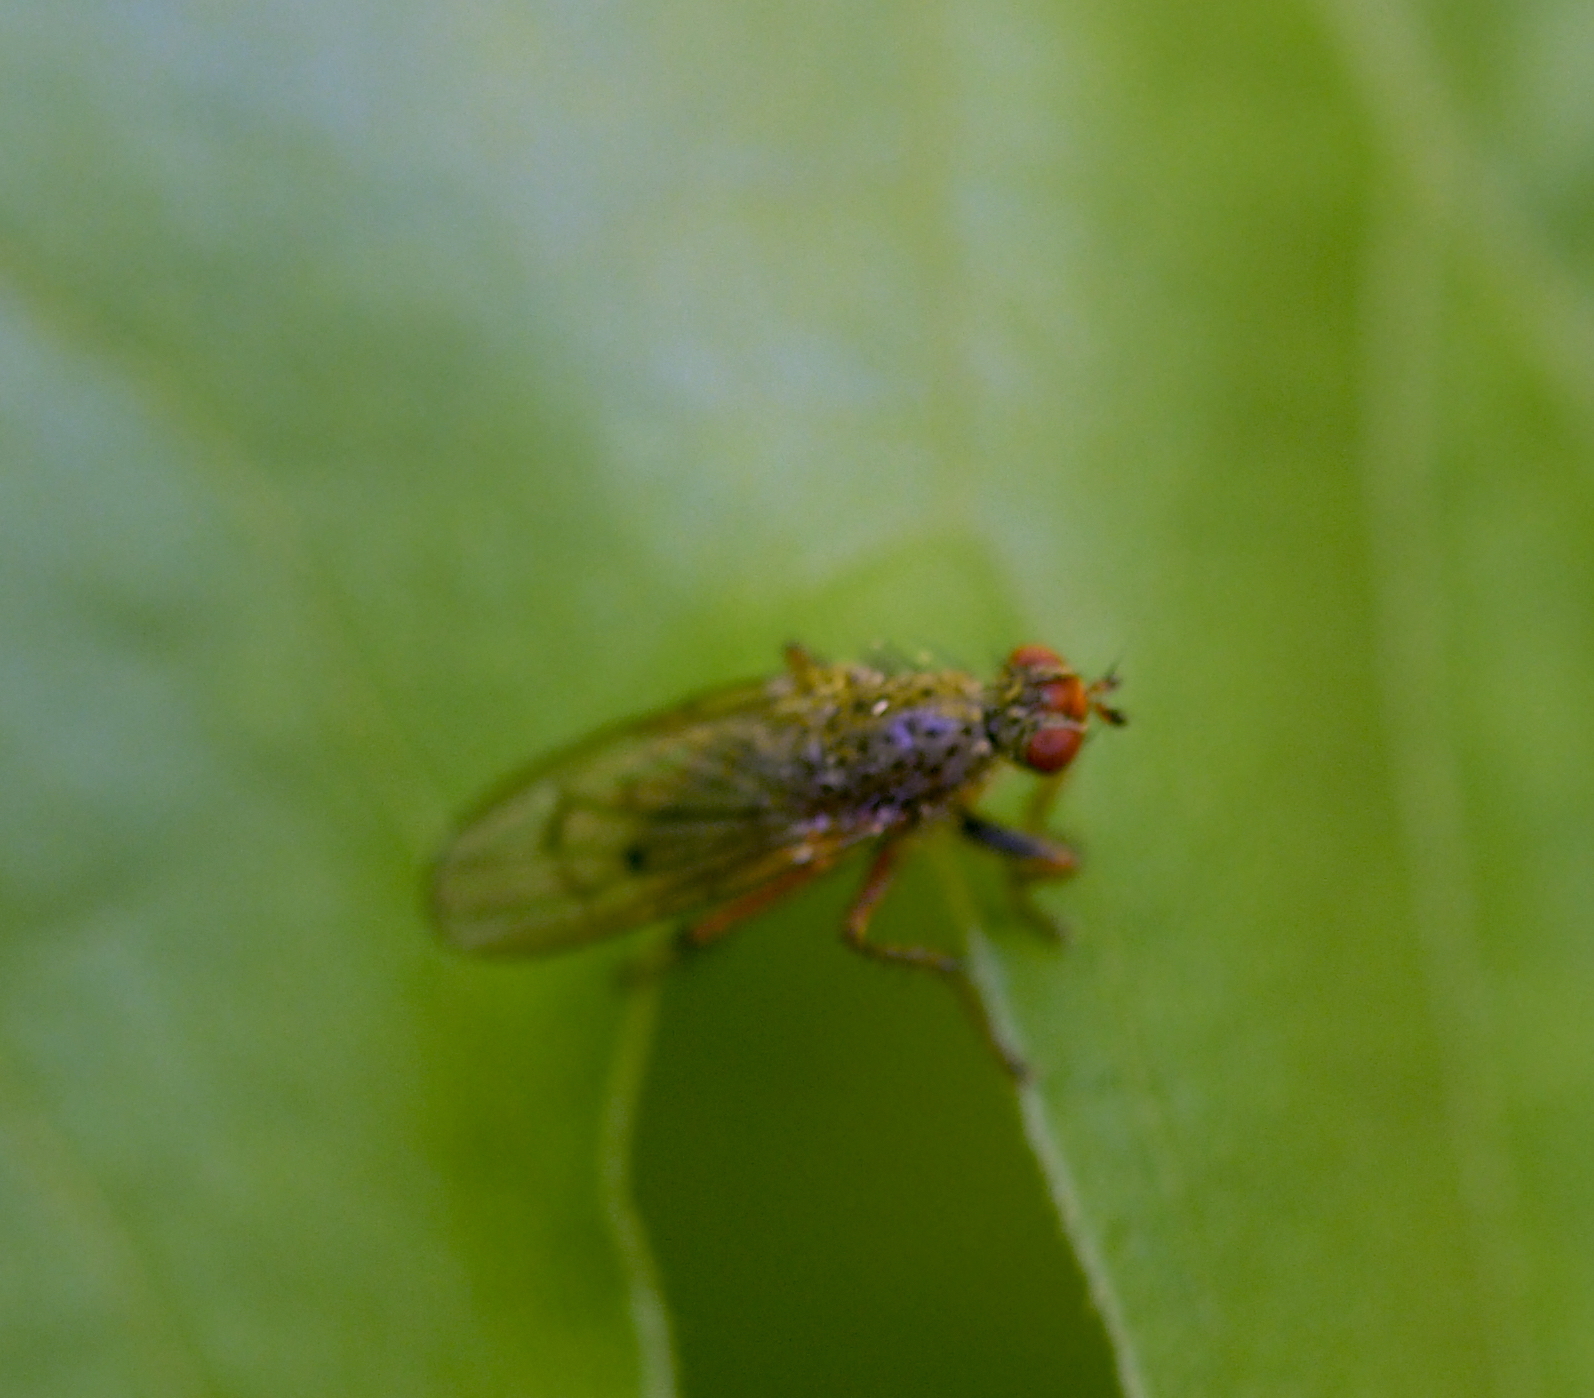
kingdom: Animalia
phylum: Arthropoda
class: Insecta
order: Diptera
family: Scathophagidae
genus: Scathophaga
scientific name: Scathophaga furcata
